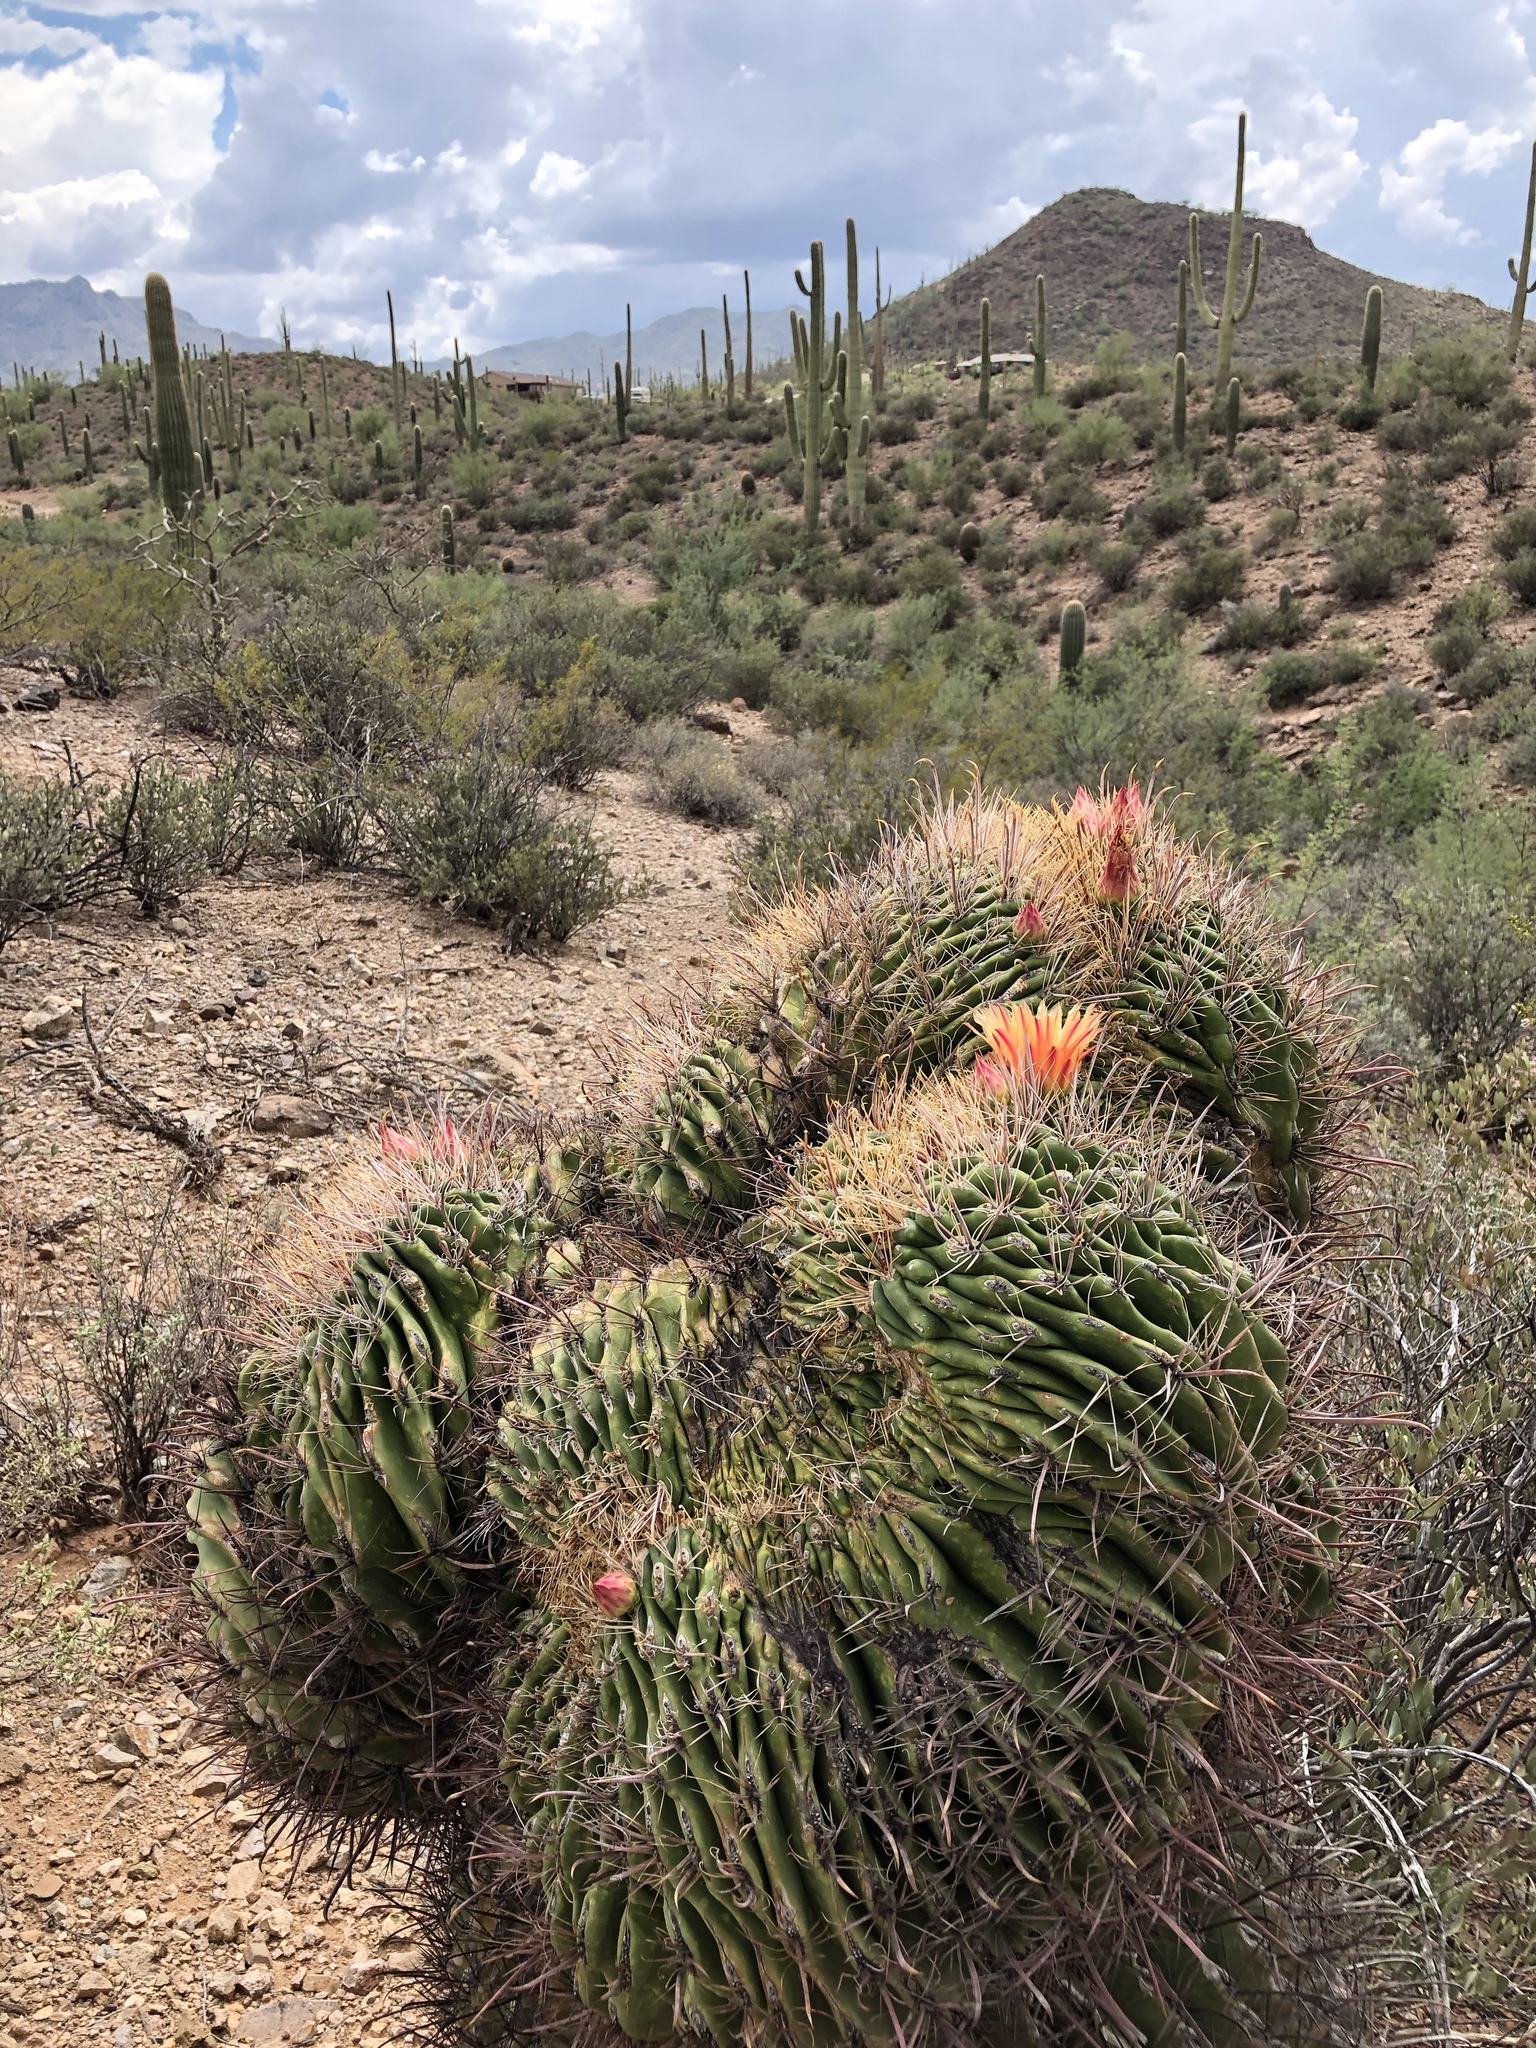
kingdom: Plantae
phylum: Tracheophyta
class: Magnoliopsida
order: Caryophyllales
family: Cactaceae
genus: Ferocactus
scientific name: Ferocactus wislizeni
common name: Candy barrel cactus
